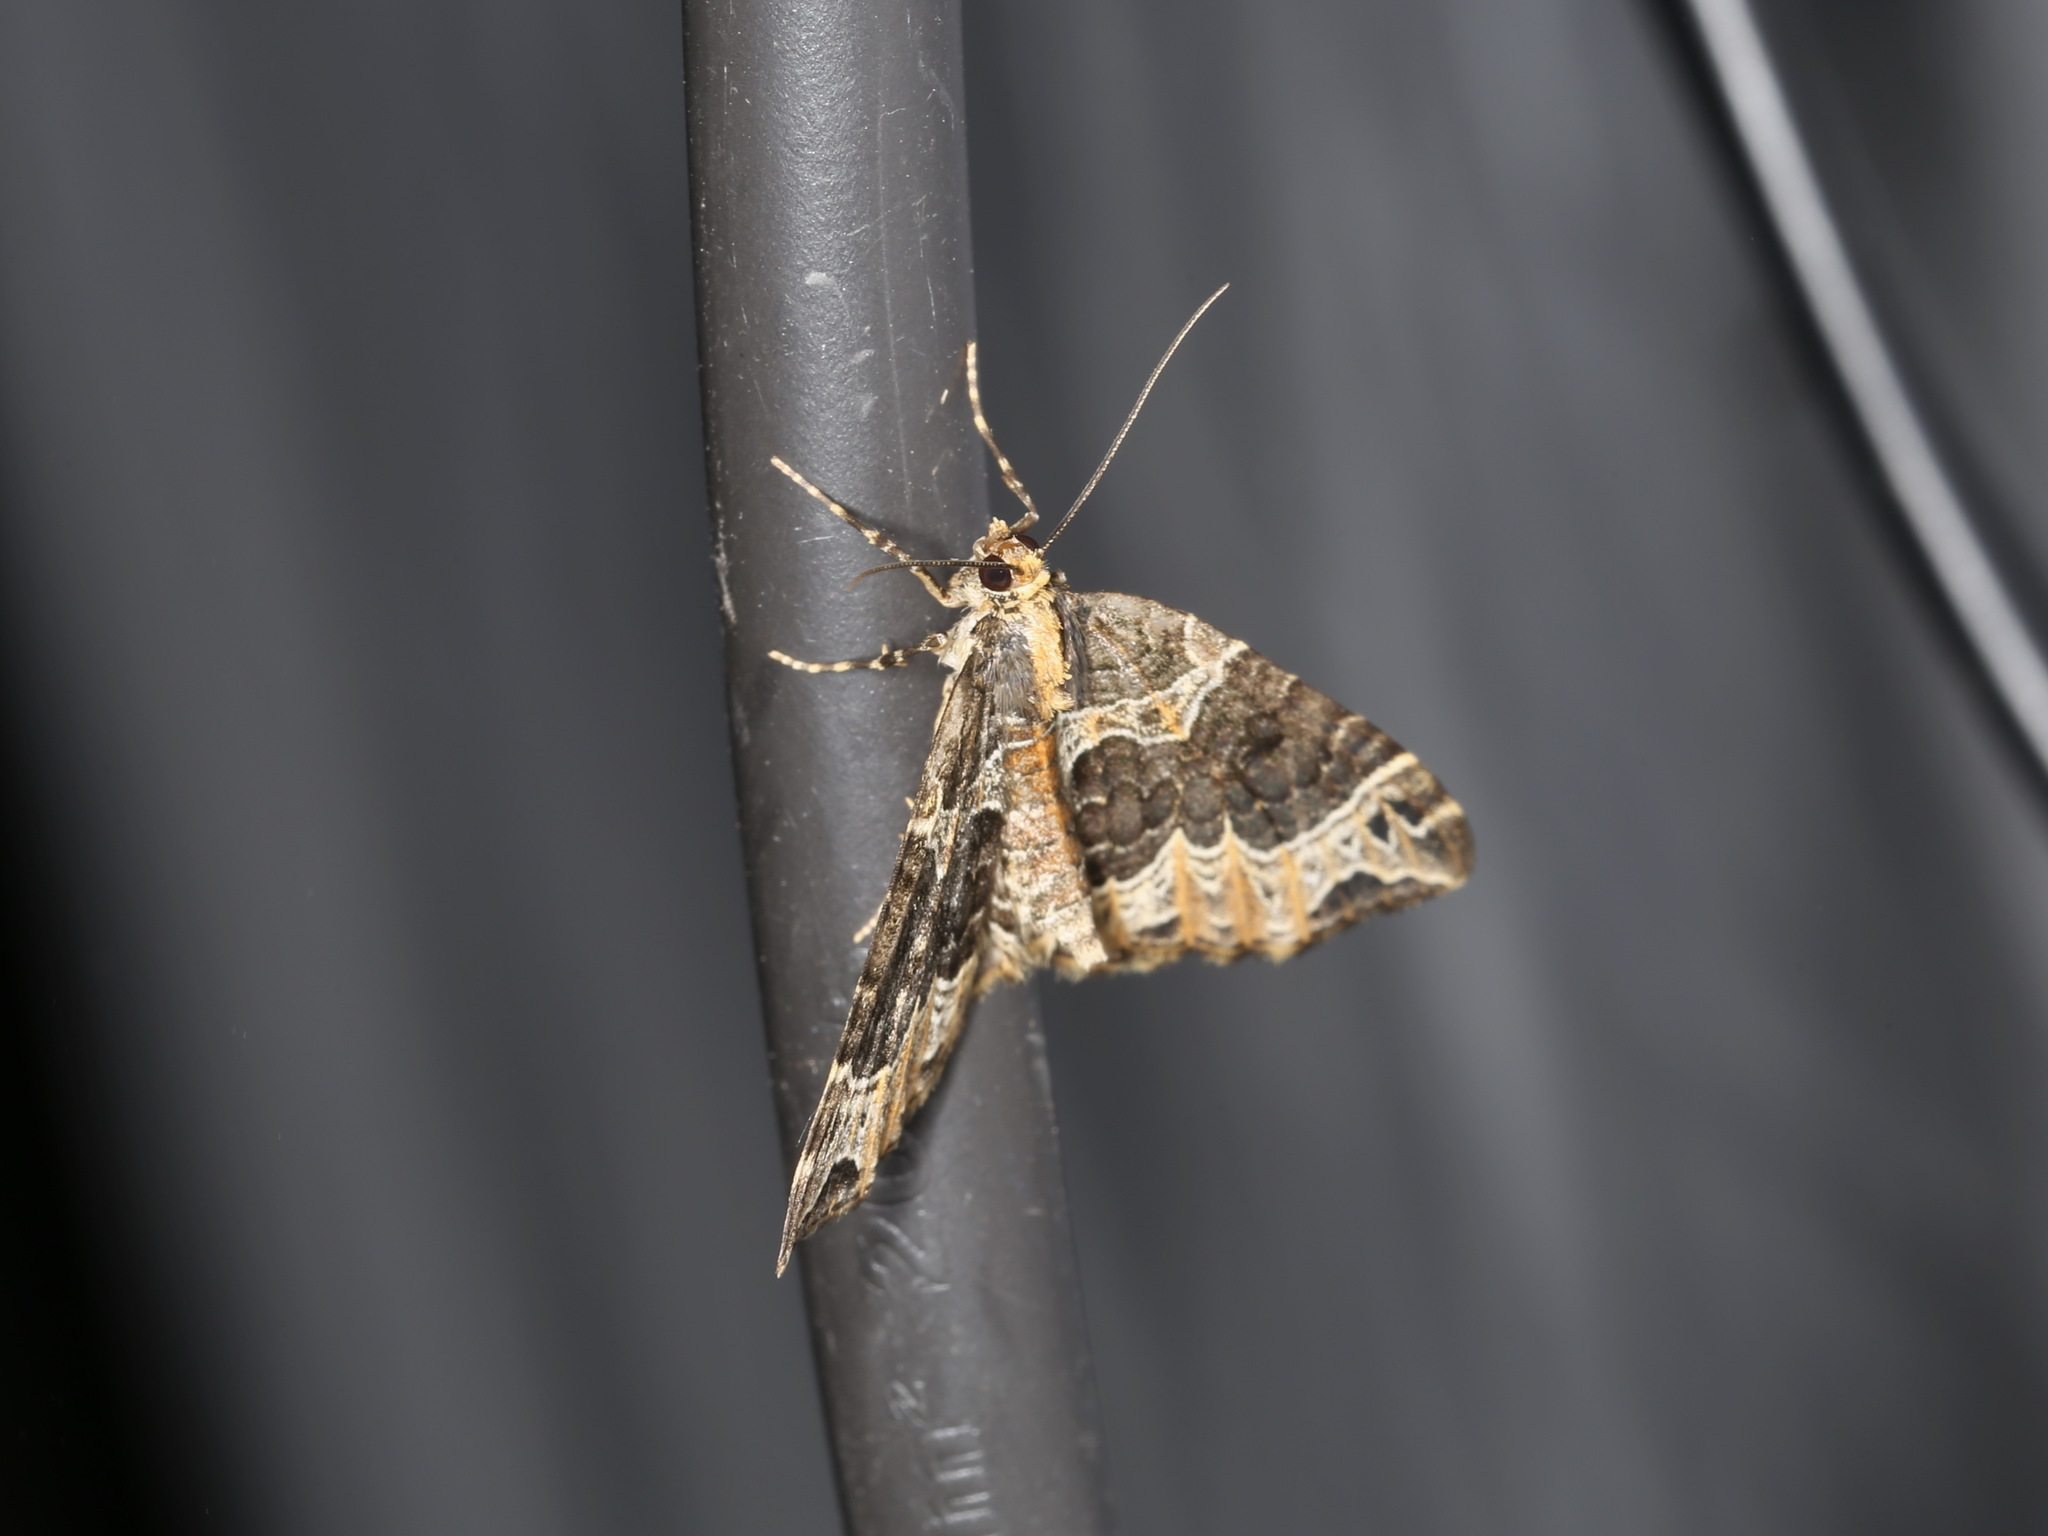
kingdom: Animalia
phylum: Arthropoda
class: Insecta
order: Lepidoptera
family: Geometridae
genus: Ecliptopera
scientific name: Ecliptopera silaceata
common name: Small phoenix
